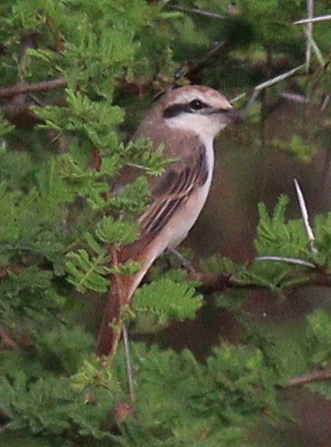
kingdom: Animalia
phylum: Chordata
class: Aves
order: Passeriformes
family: Laniidae
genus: Lanius
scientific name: Lanius phoenicuroides
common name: Red-tailed shrike
